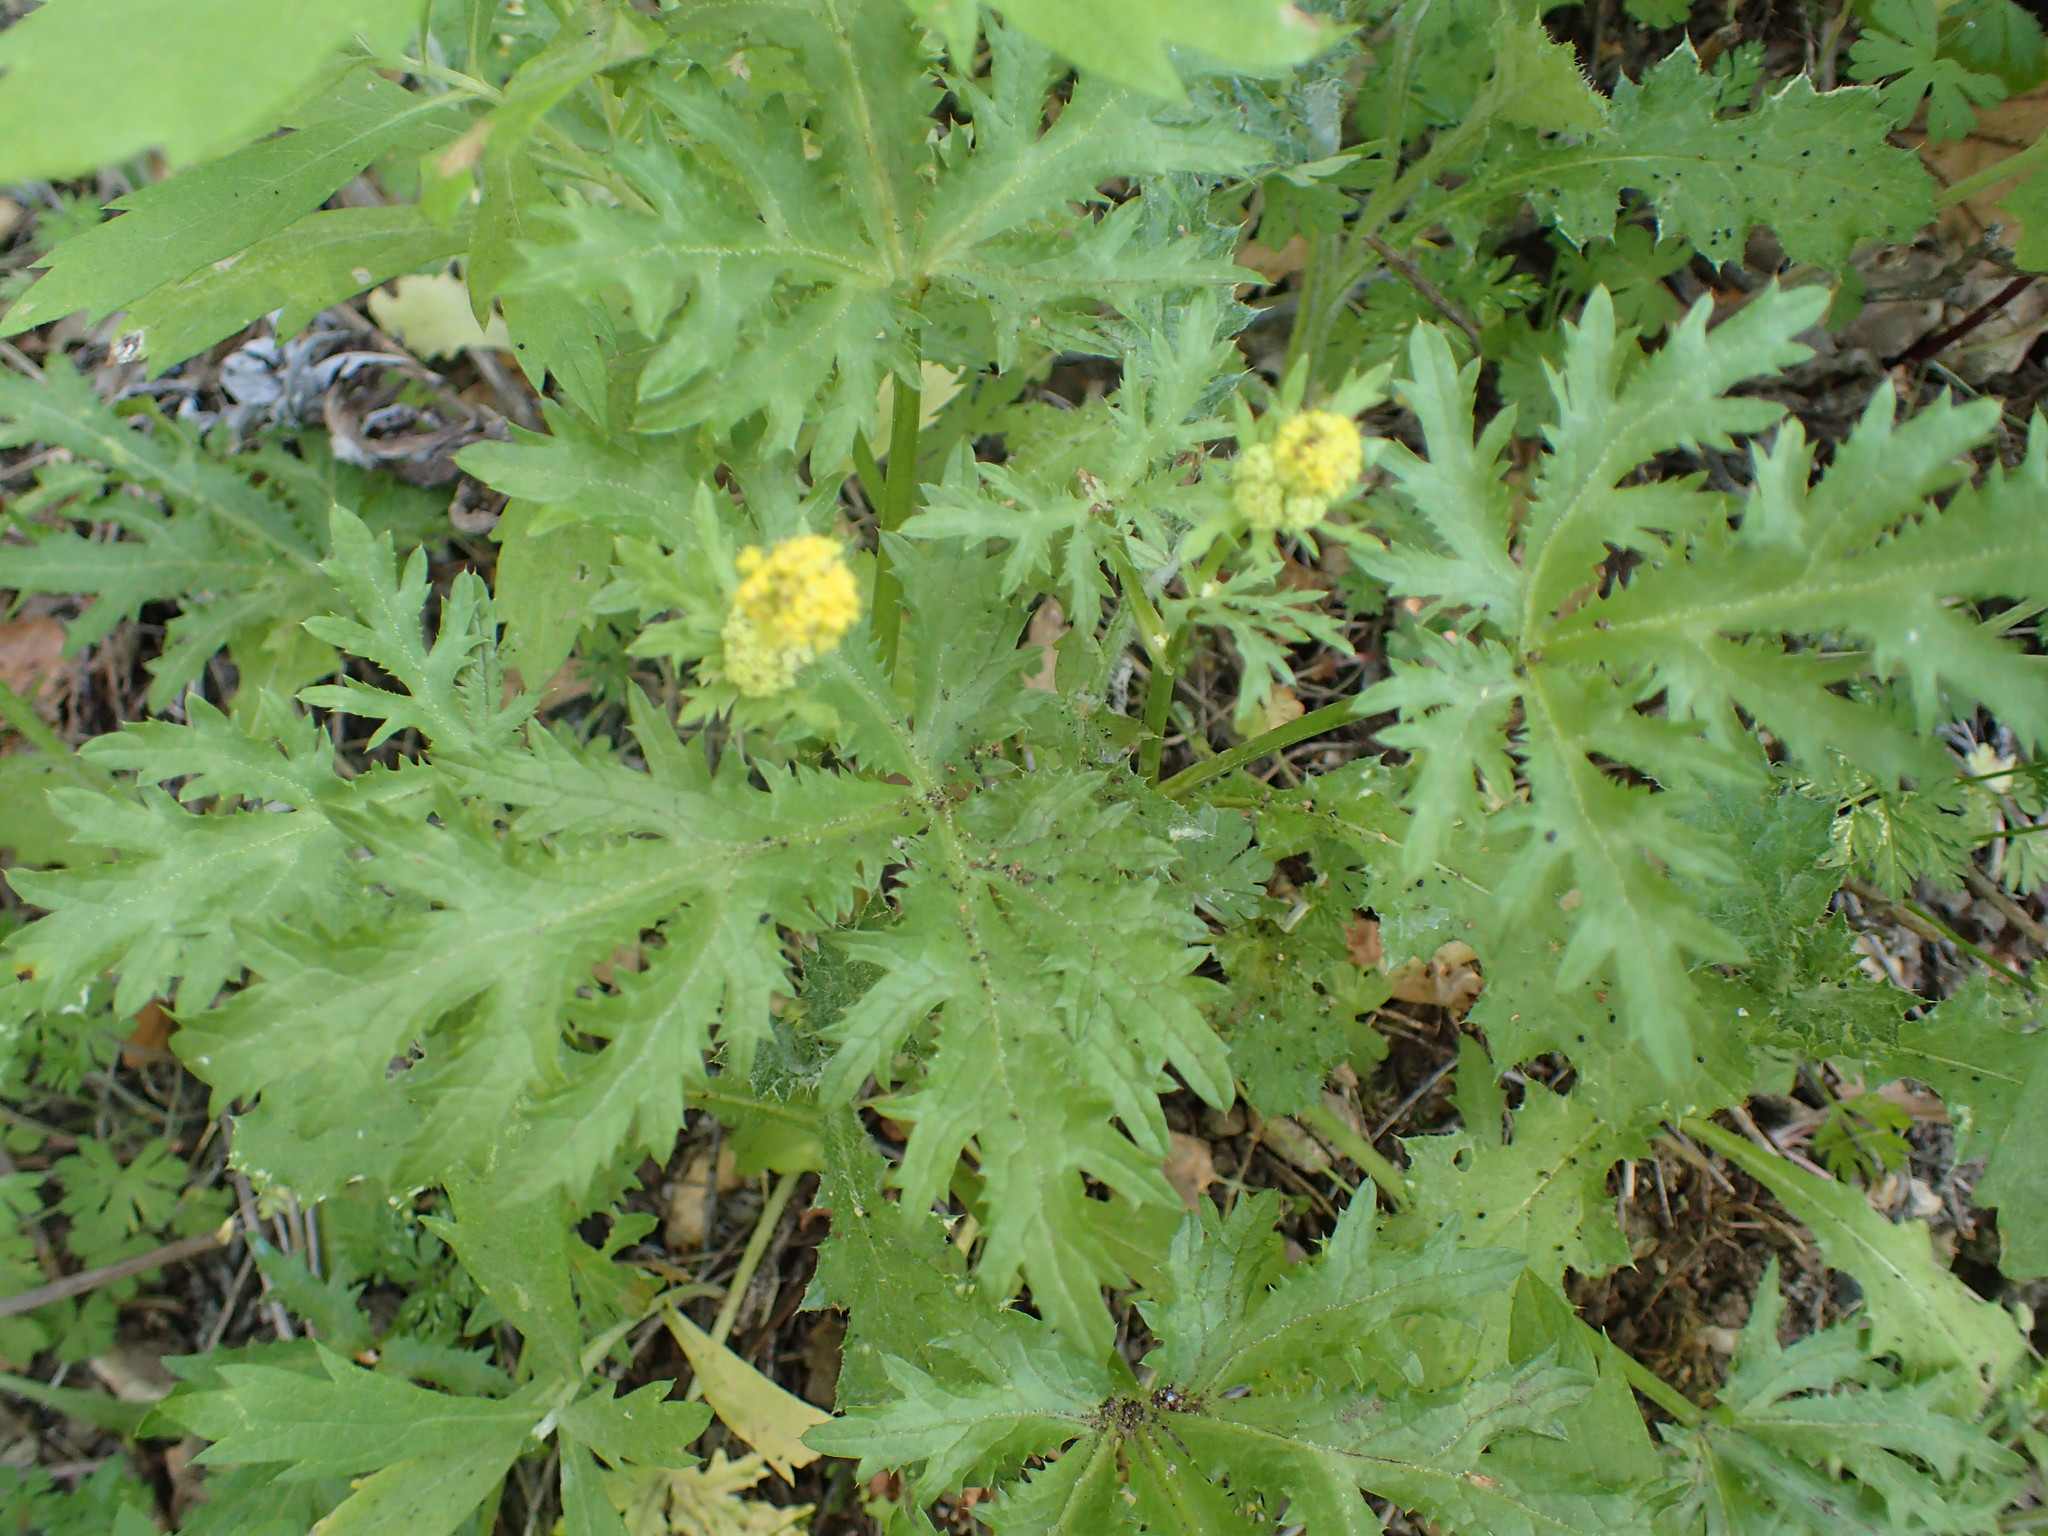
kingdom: Plantae
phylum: Tracheophyta
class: Magnoliopsida
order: Apiales
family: Apiaceae
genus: Sanicula
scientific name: Sanicula arguta
